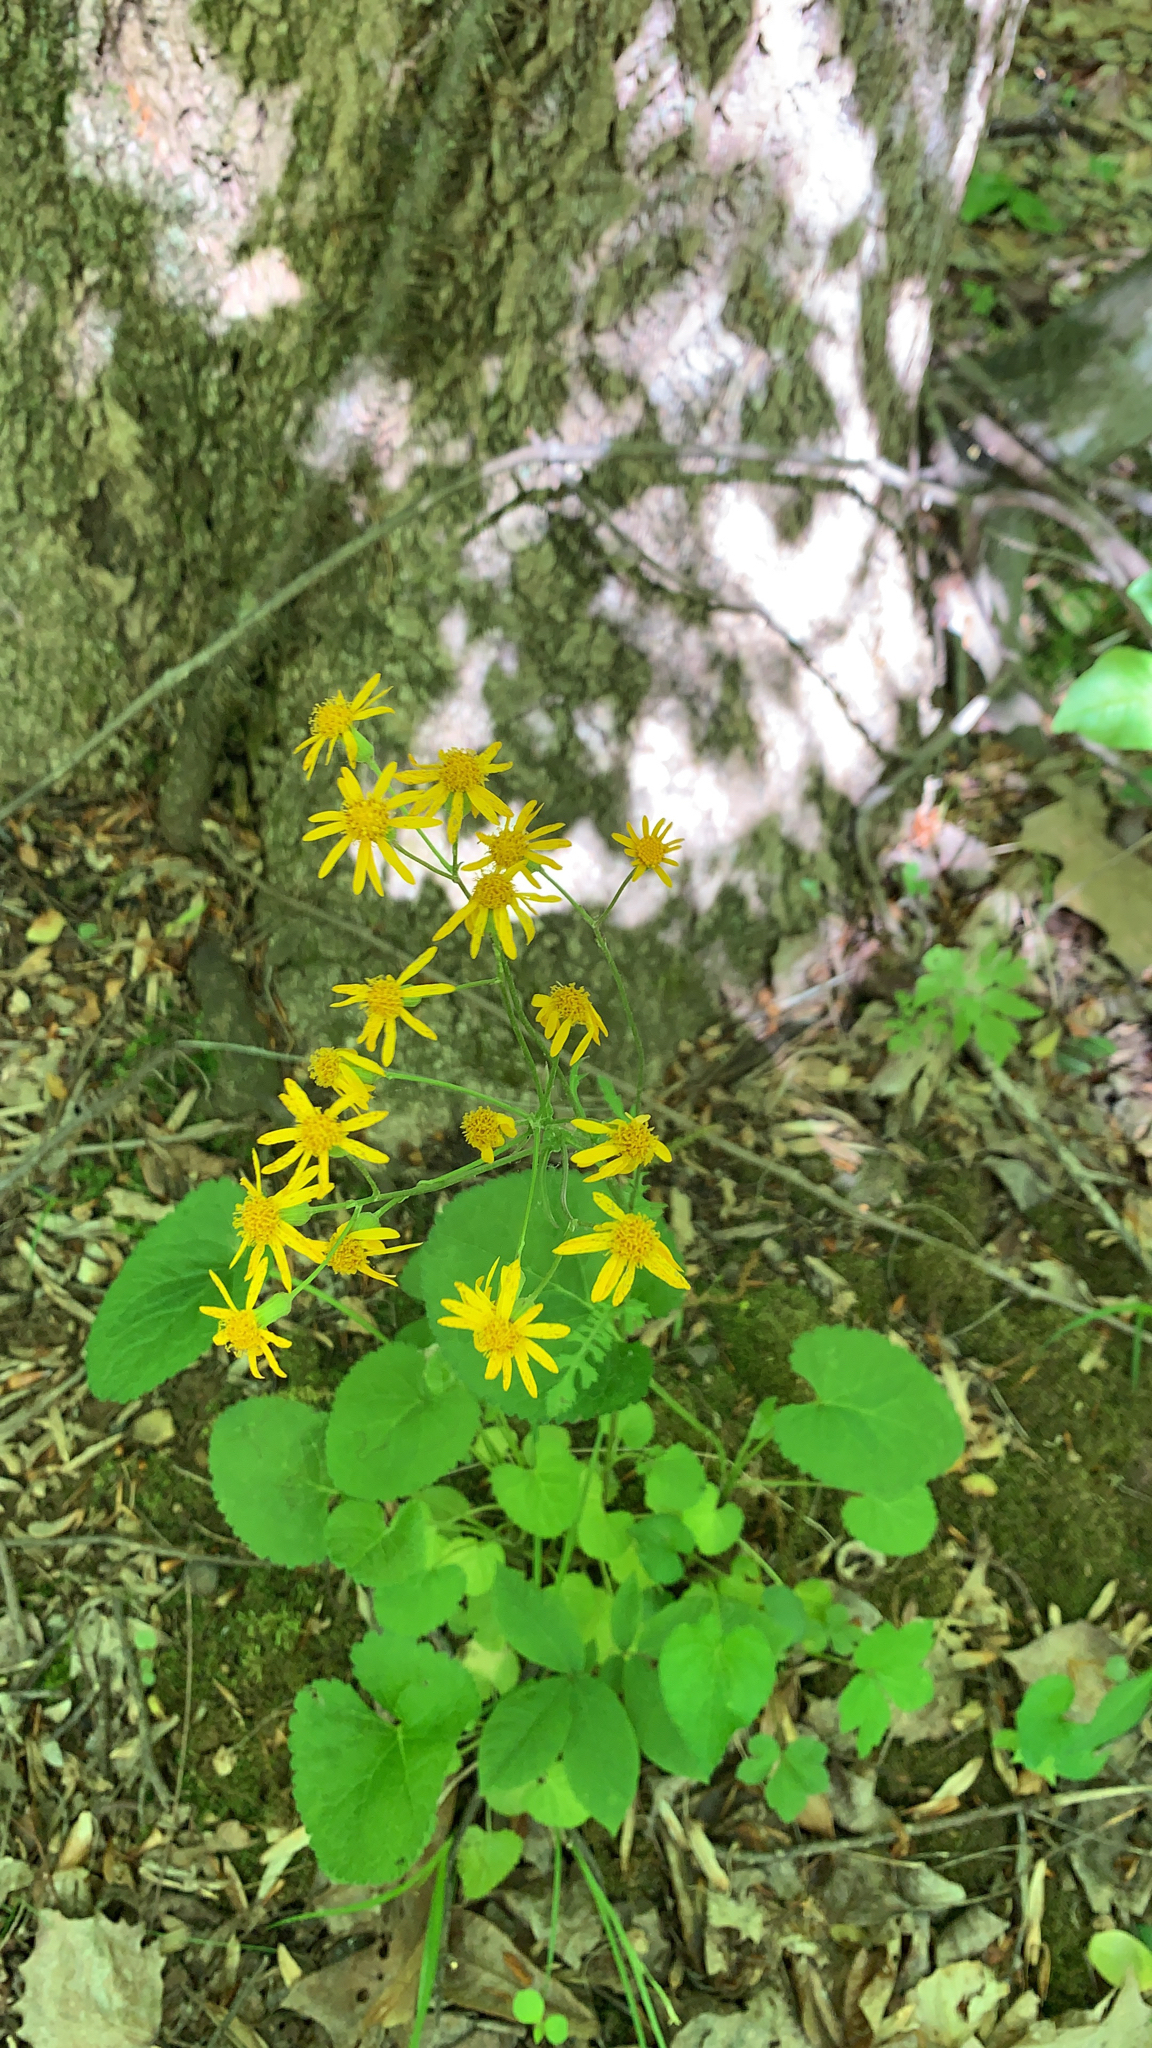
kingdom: Plantae
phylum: Tracheophyta
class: Magnoliopsida
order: Asterales
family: Asteraceae
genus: Packera
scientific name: Packera aurea
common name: Golden groundsel
